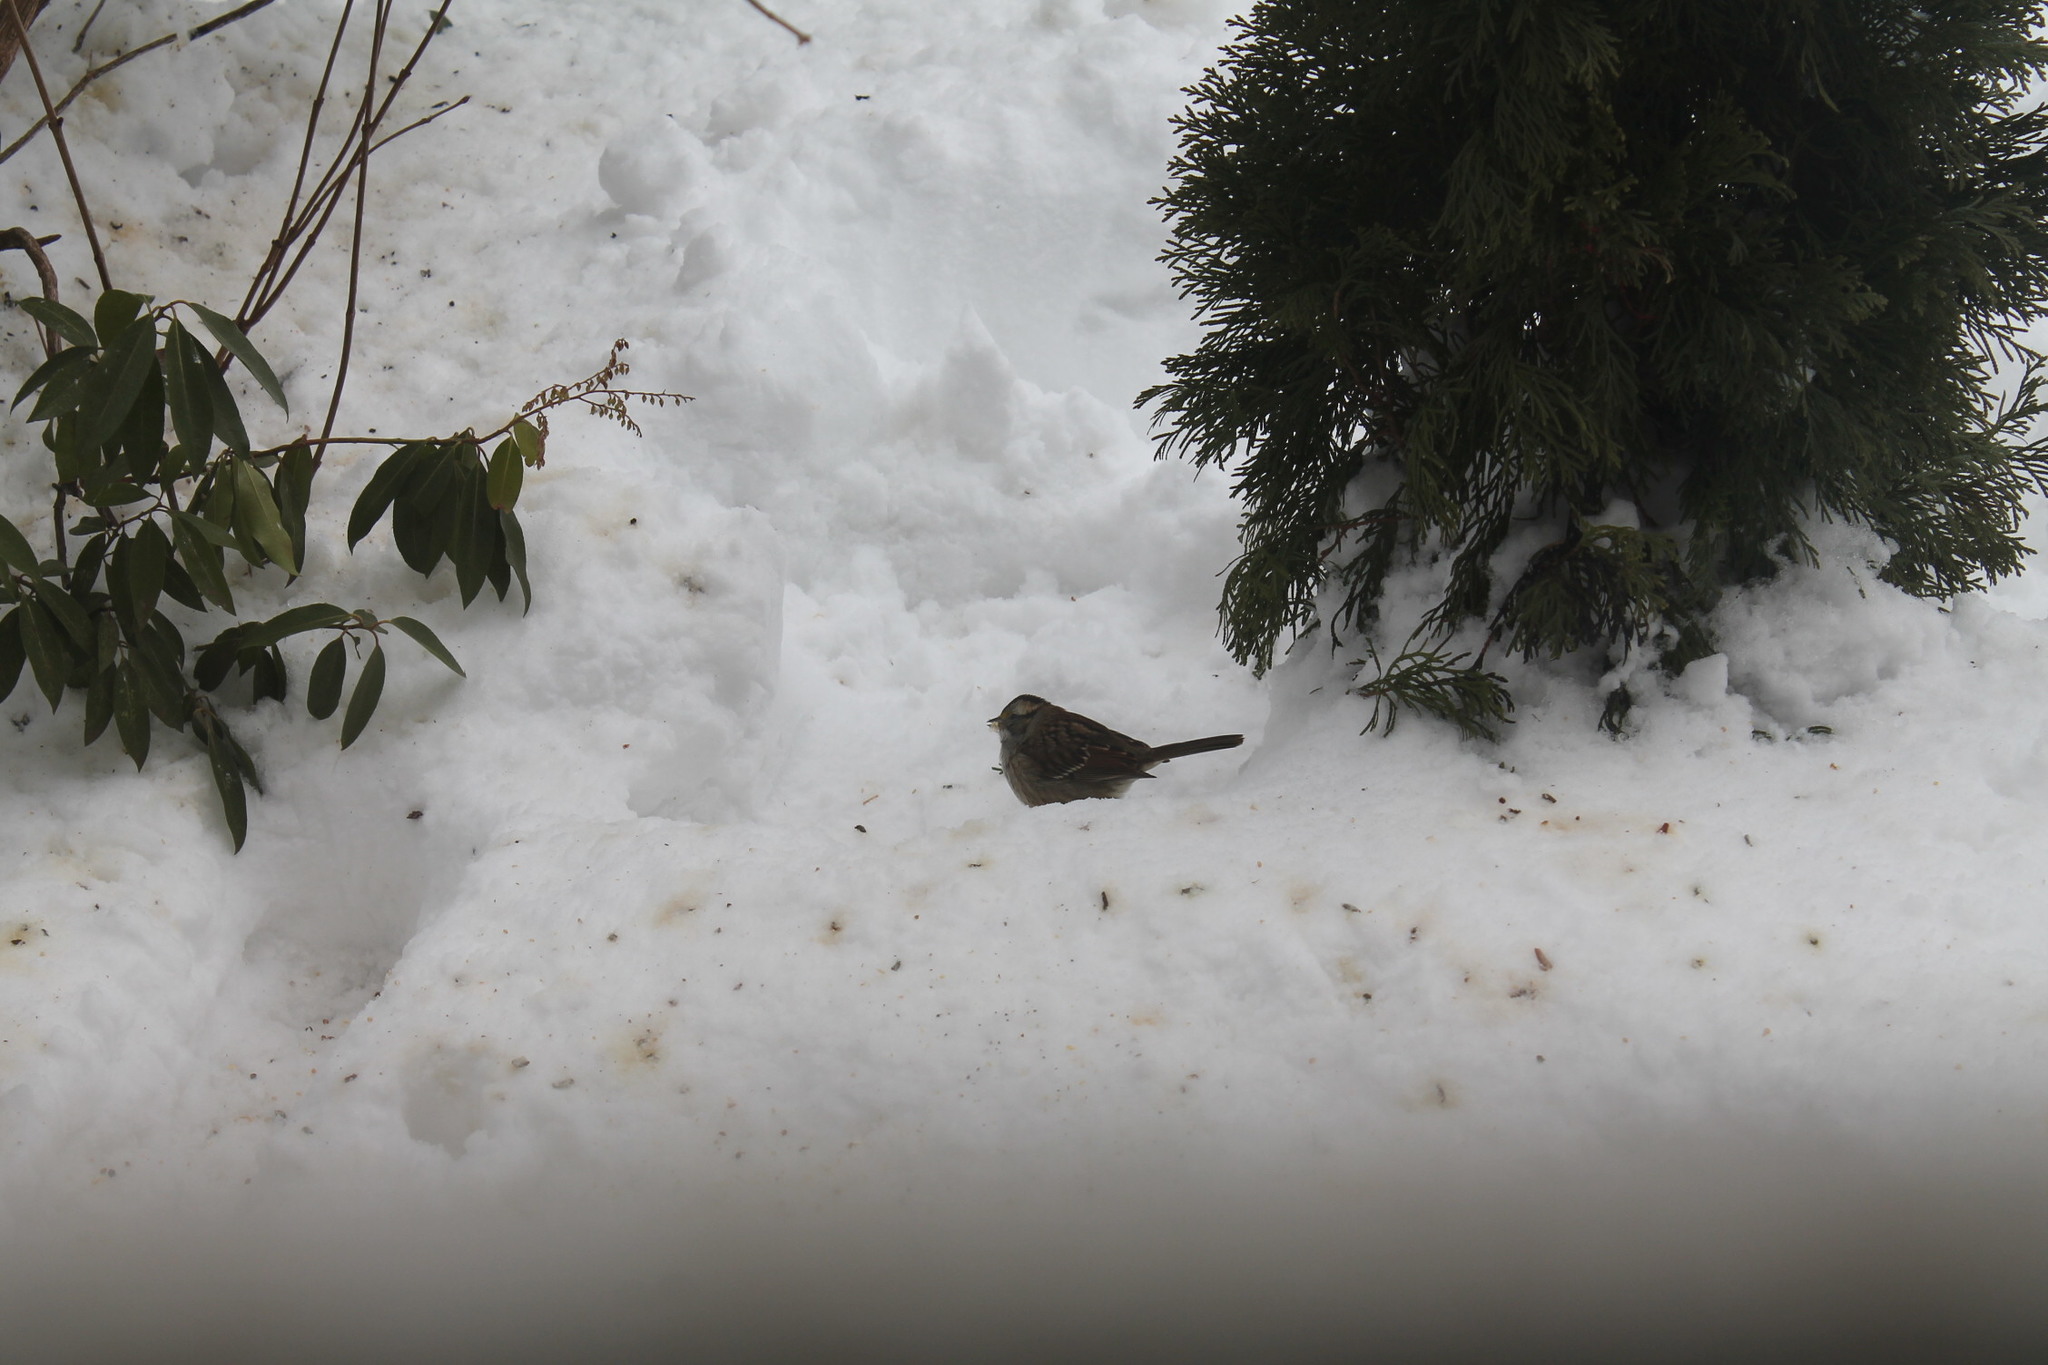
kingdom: Animalia
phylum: Chordata
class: Aves
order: Passeriformes
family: Passerellidae
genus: Zonotrichia
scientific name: Zonotrichia albicollis
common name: White-throated sparrow
